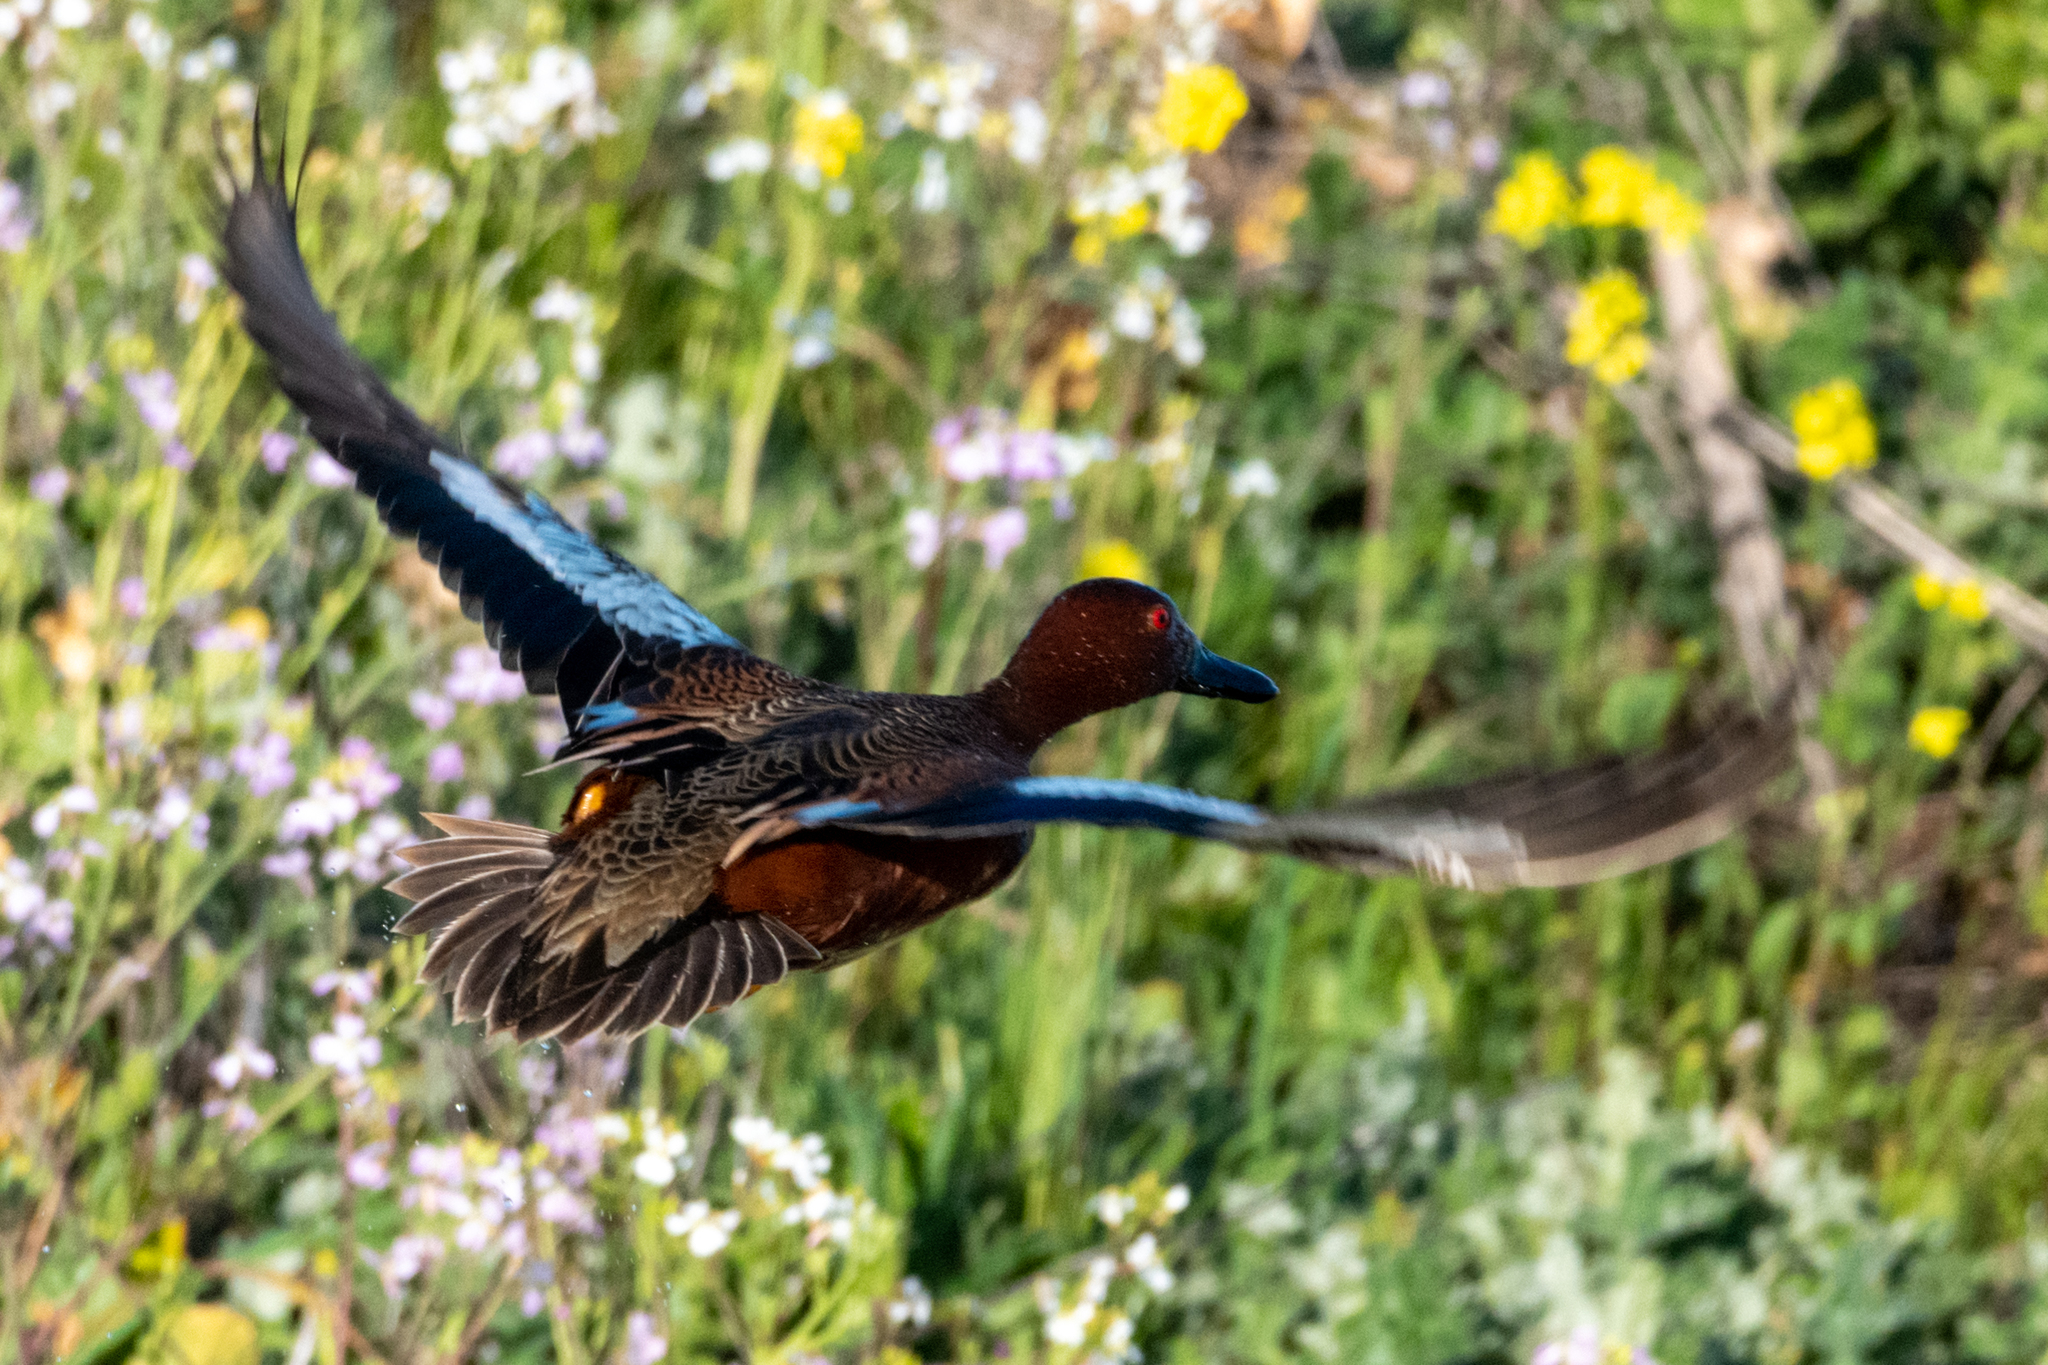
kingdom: Animalia
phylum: Chordata
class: Aves
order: Anseriformes
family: Anatidae
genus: Spatula
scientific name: Spatula cyanoptera
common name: Cinnamon teal
